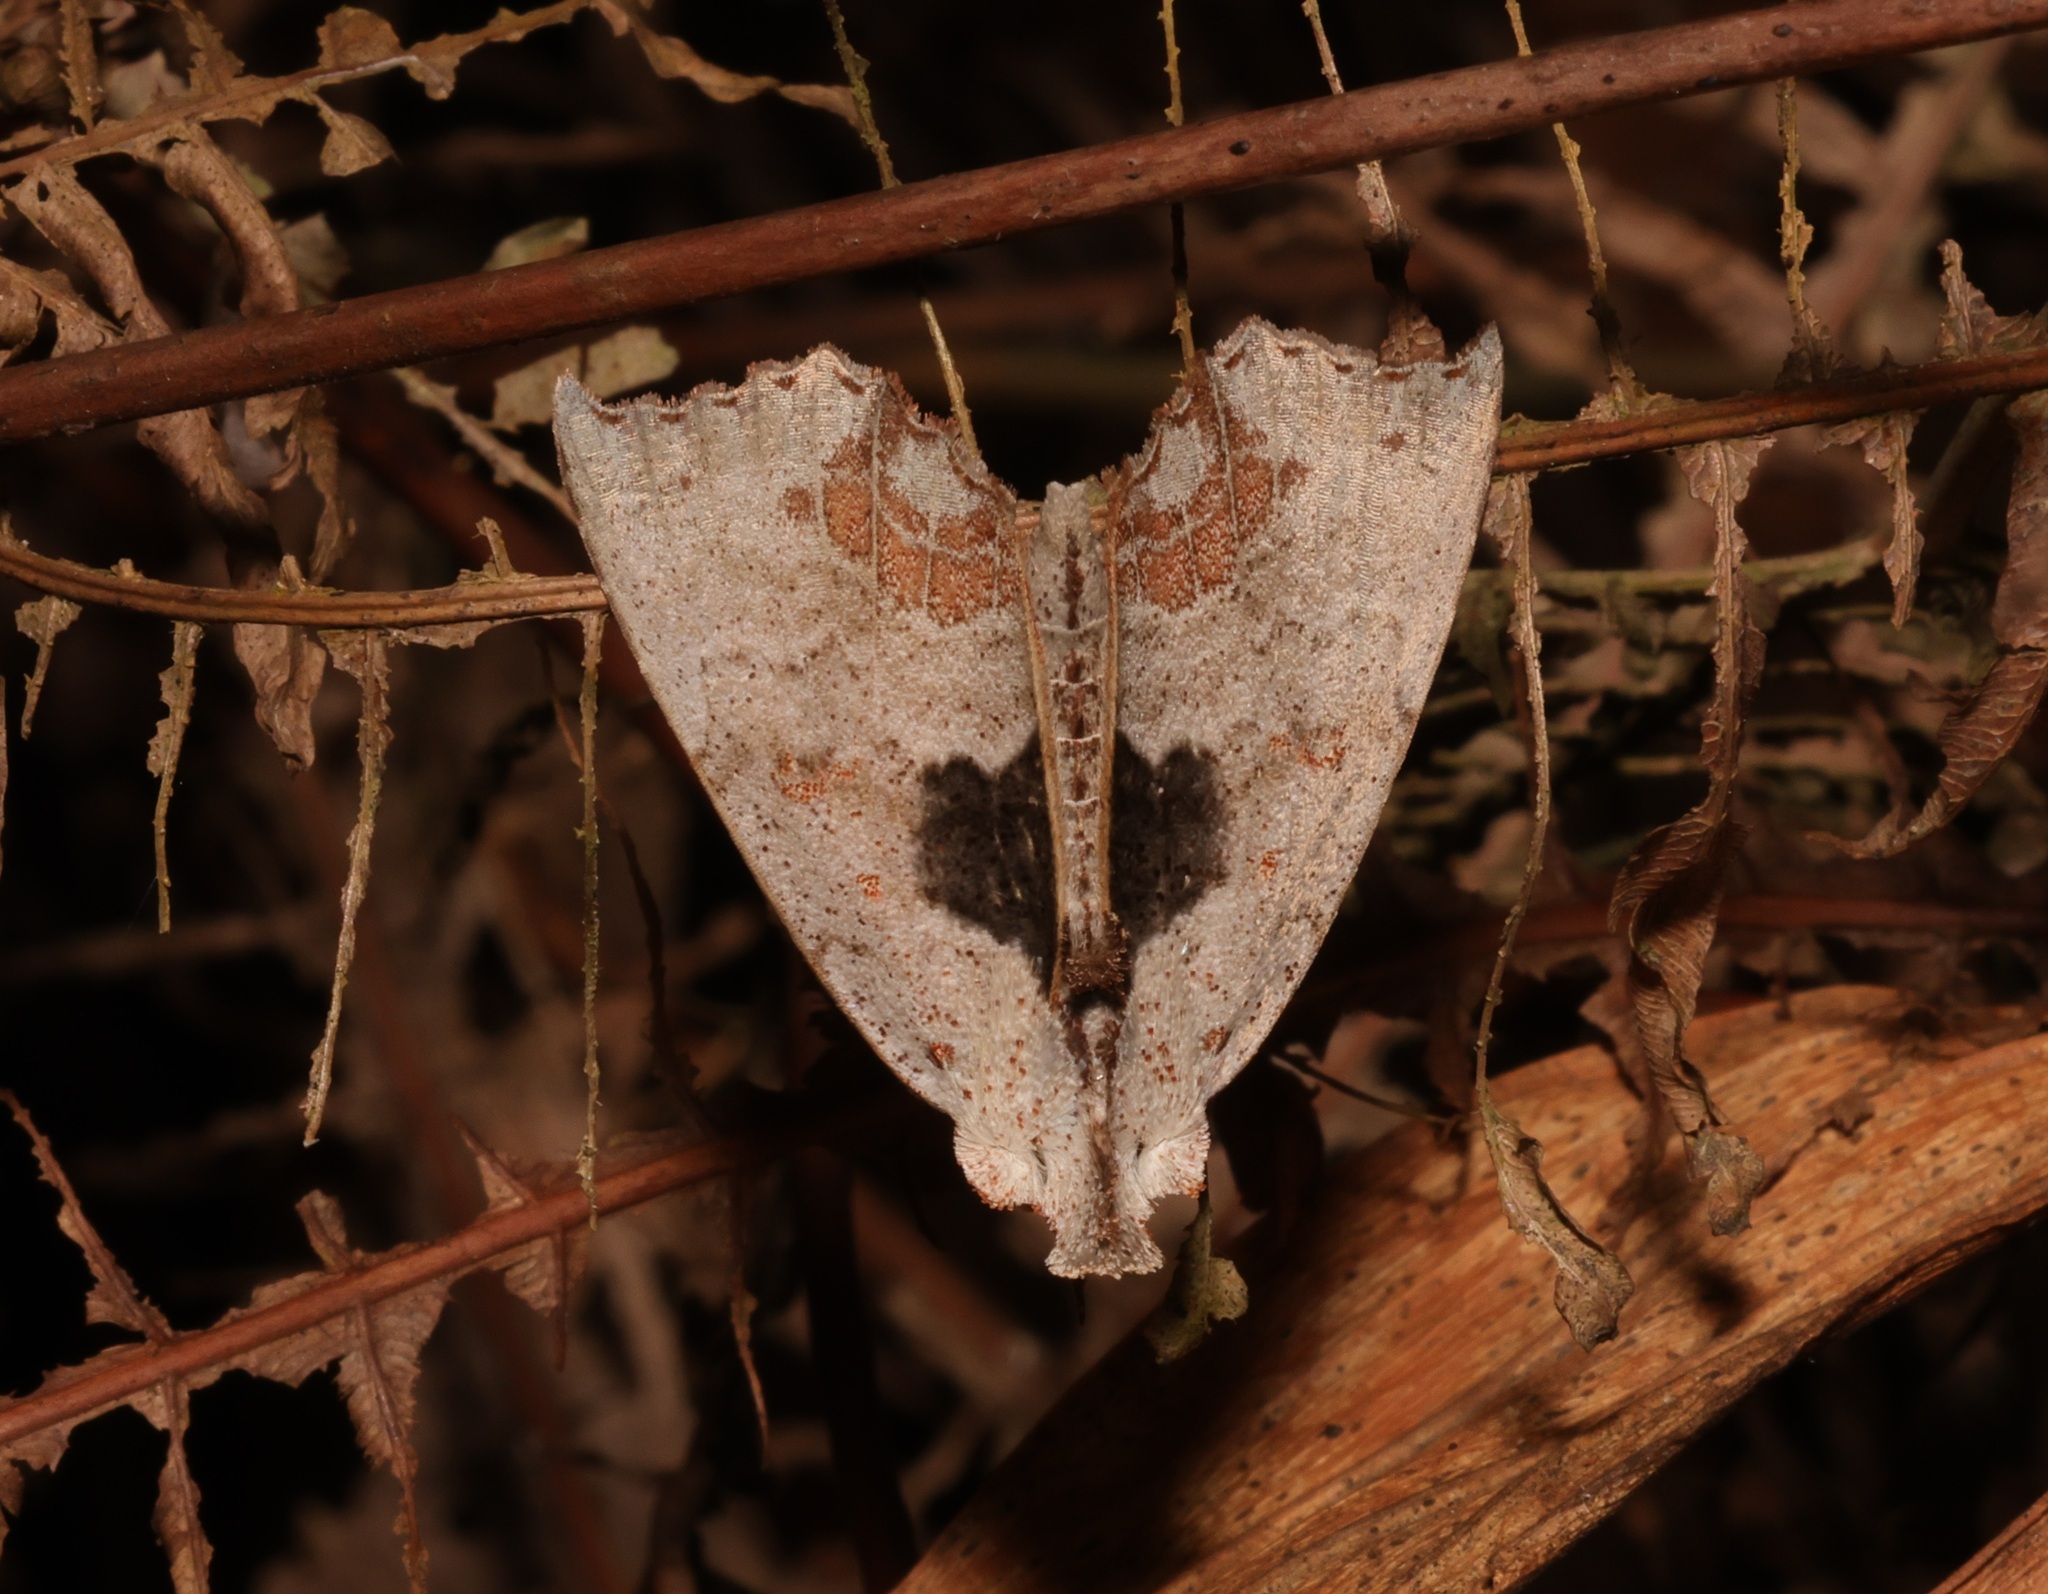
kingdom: Animalia
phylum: Arthropoda
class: Insecta
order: Lepidoptera
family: Erebidae
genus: Hyperlopha
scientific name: Hyperlopha compactilis
